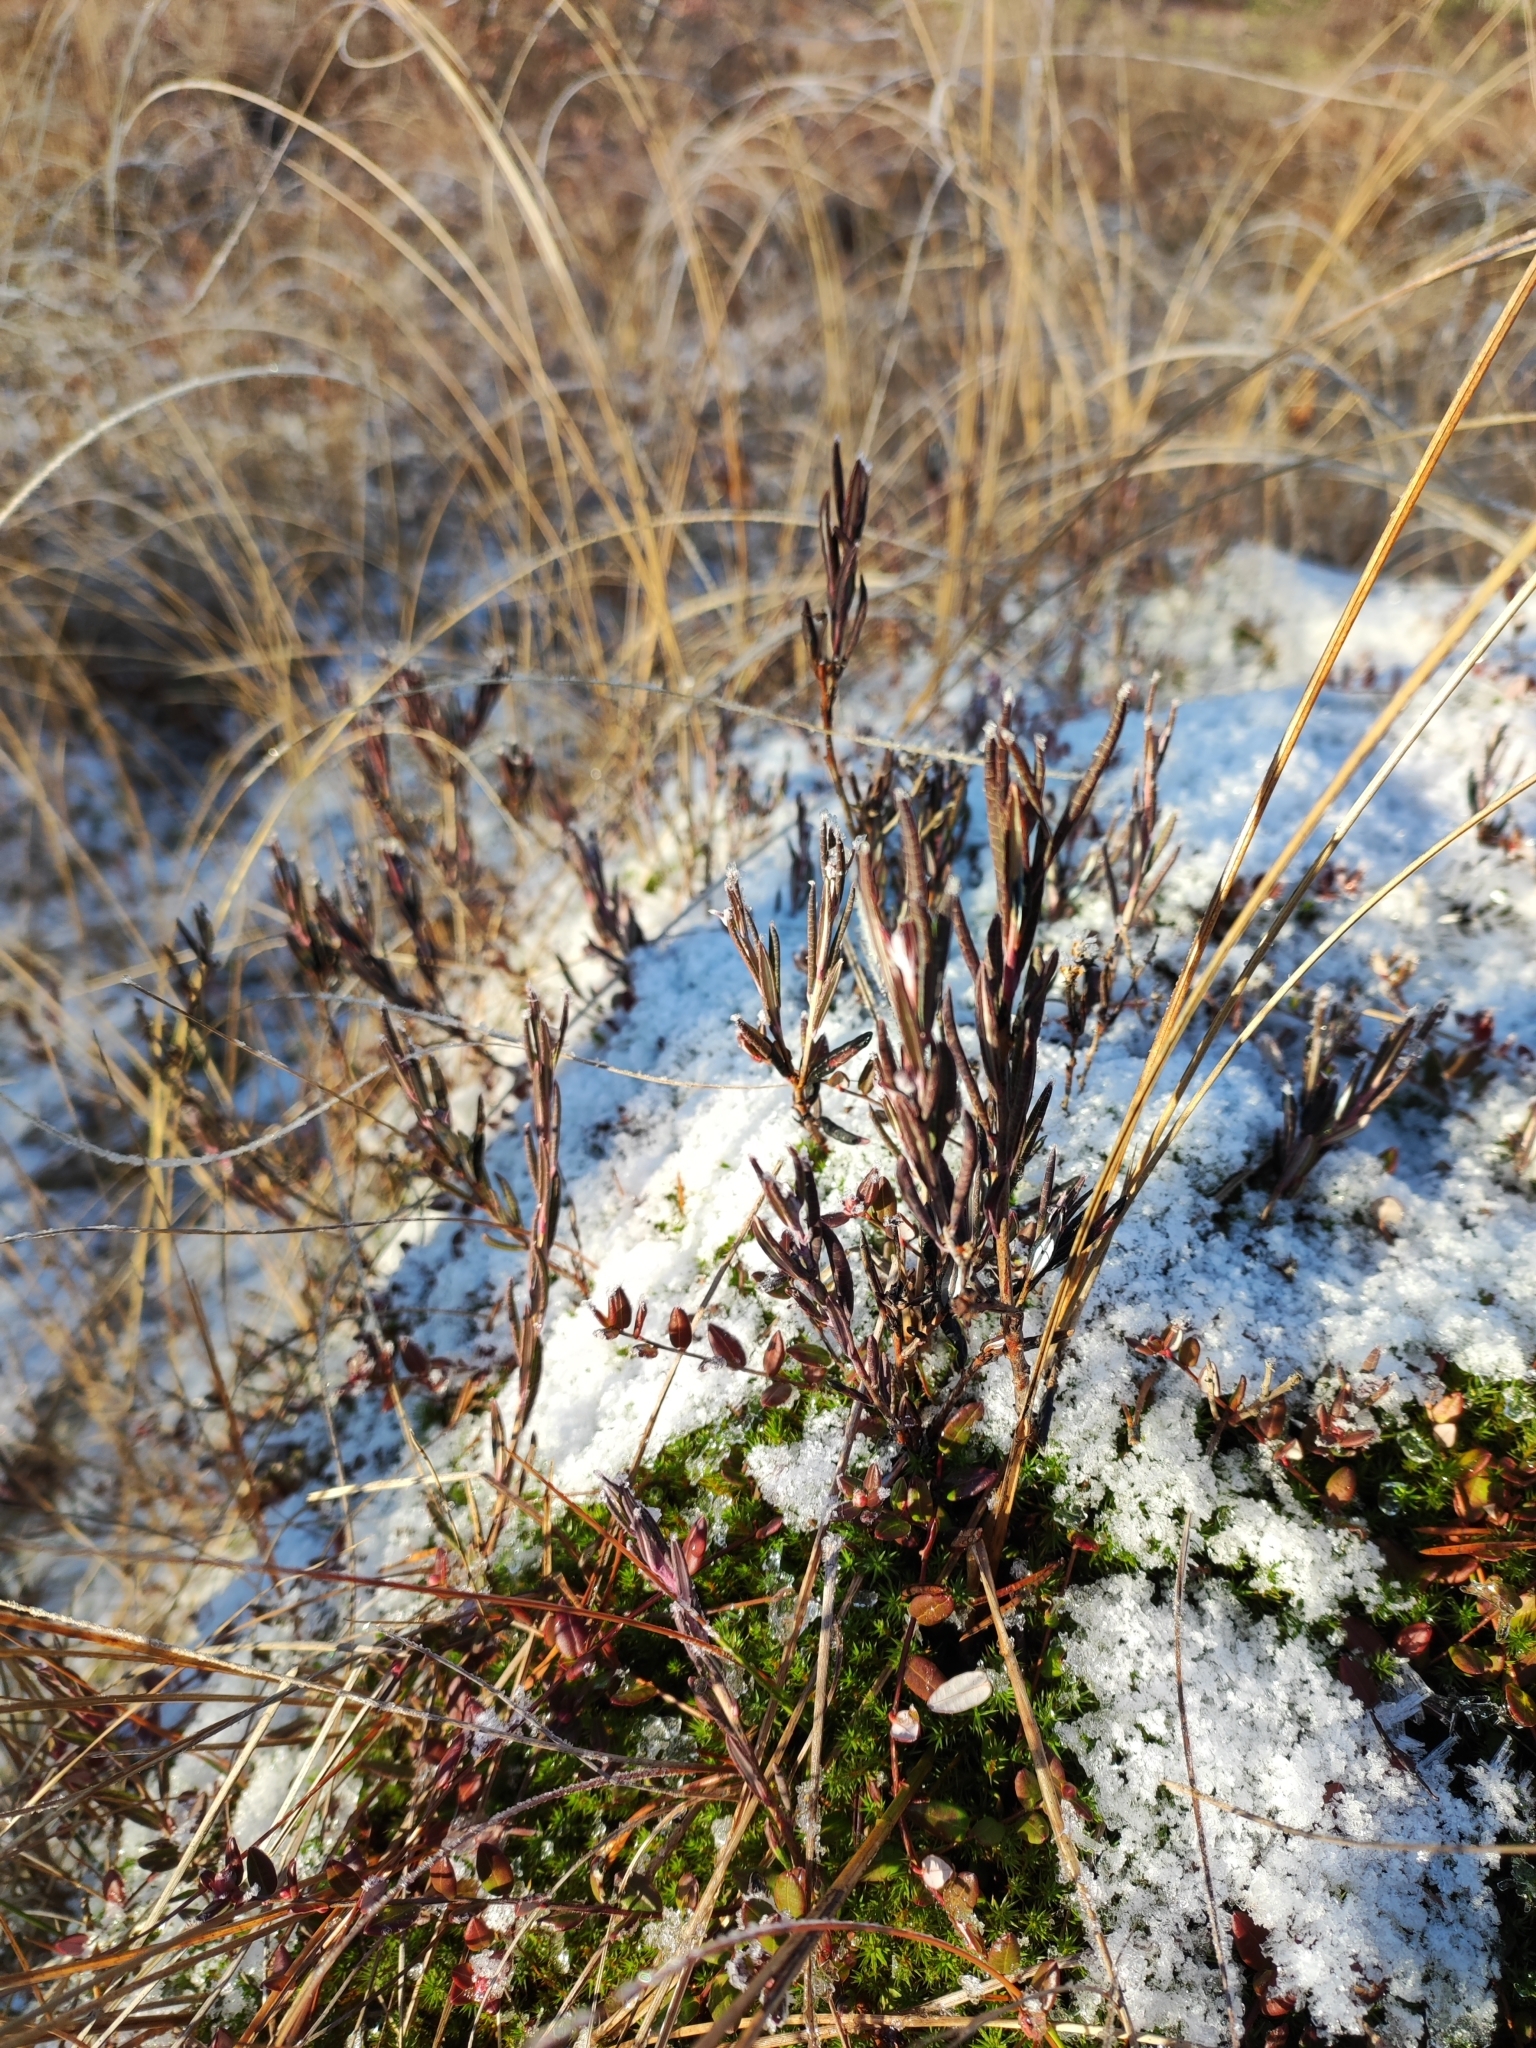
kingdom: Plantae
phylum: Tracheophyta
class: Magnoliopsida
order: Ericales
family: Ericaceae
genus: Andromeda
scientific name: Andromeda polifolia
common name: Bog-rosemary
